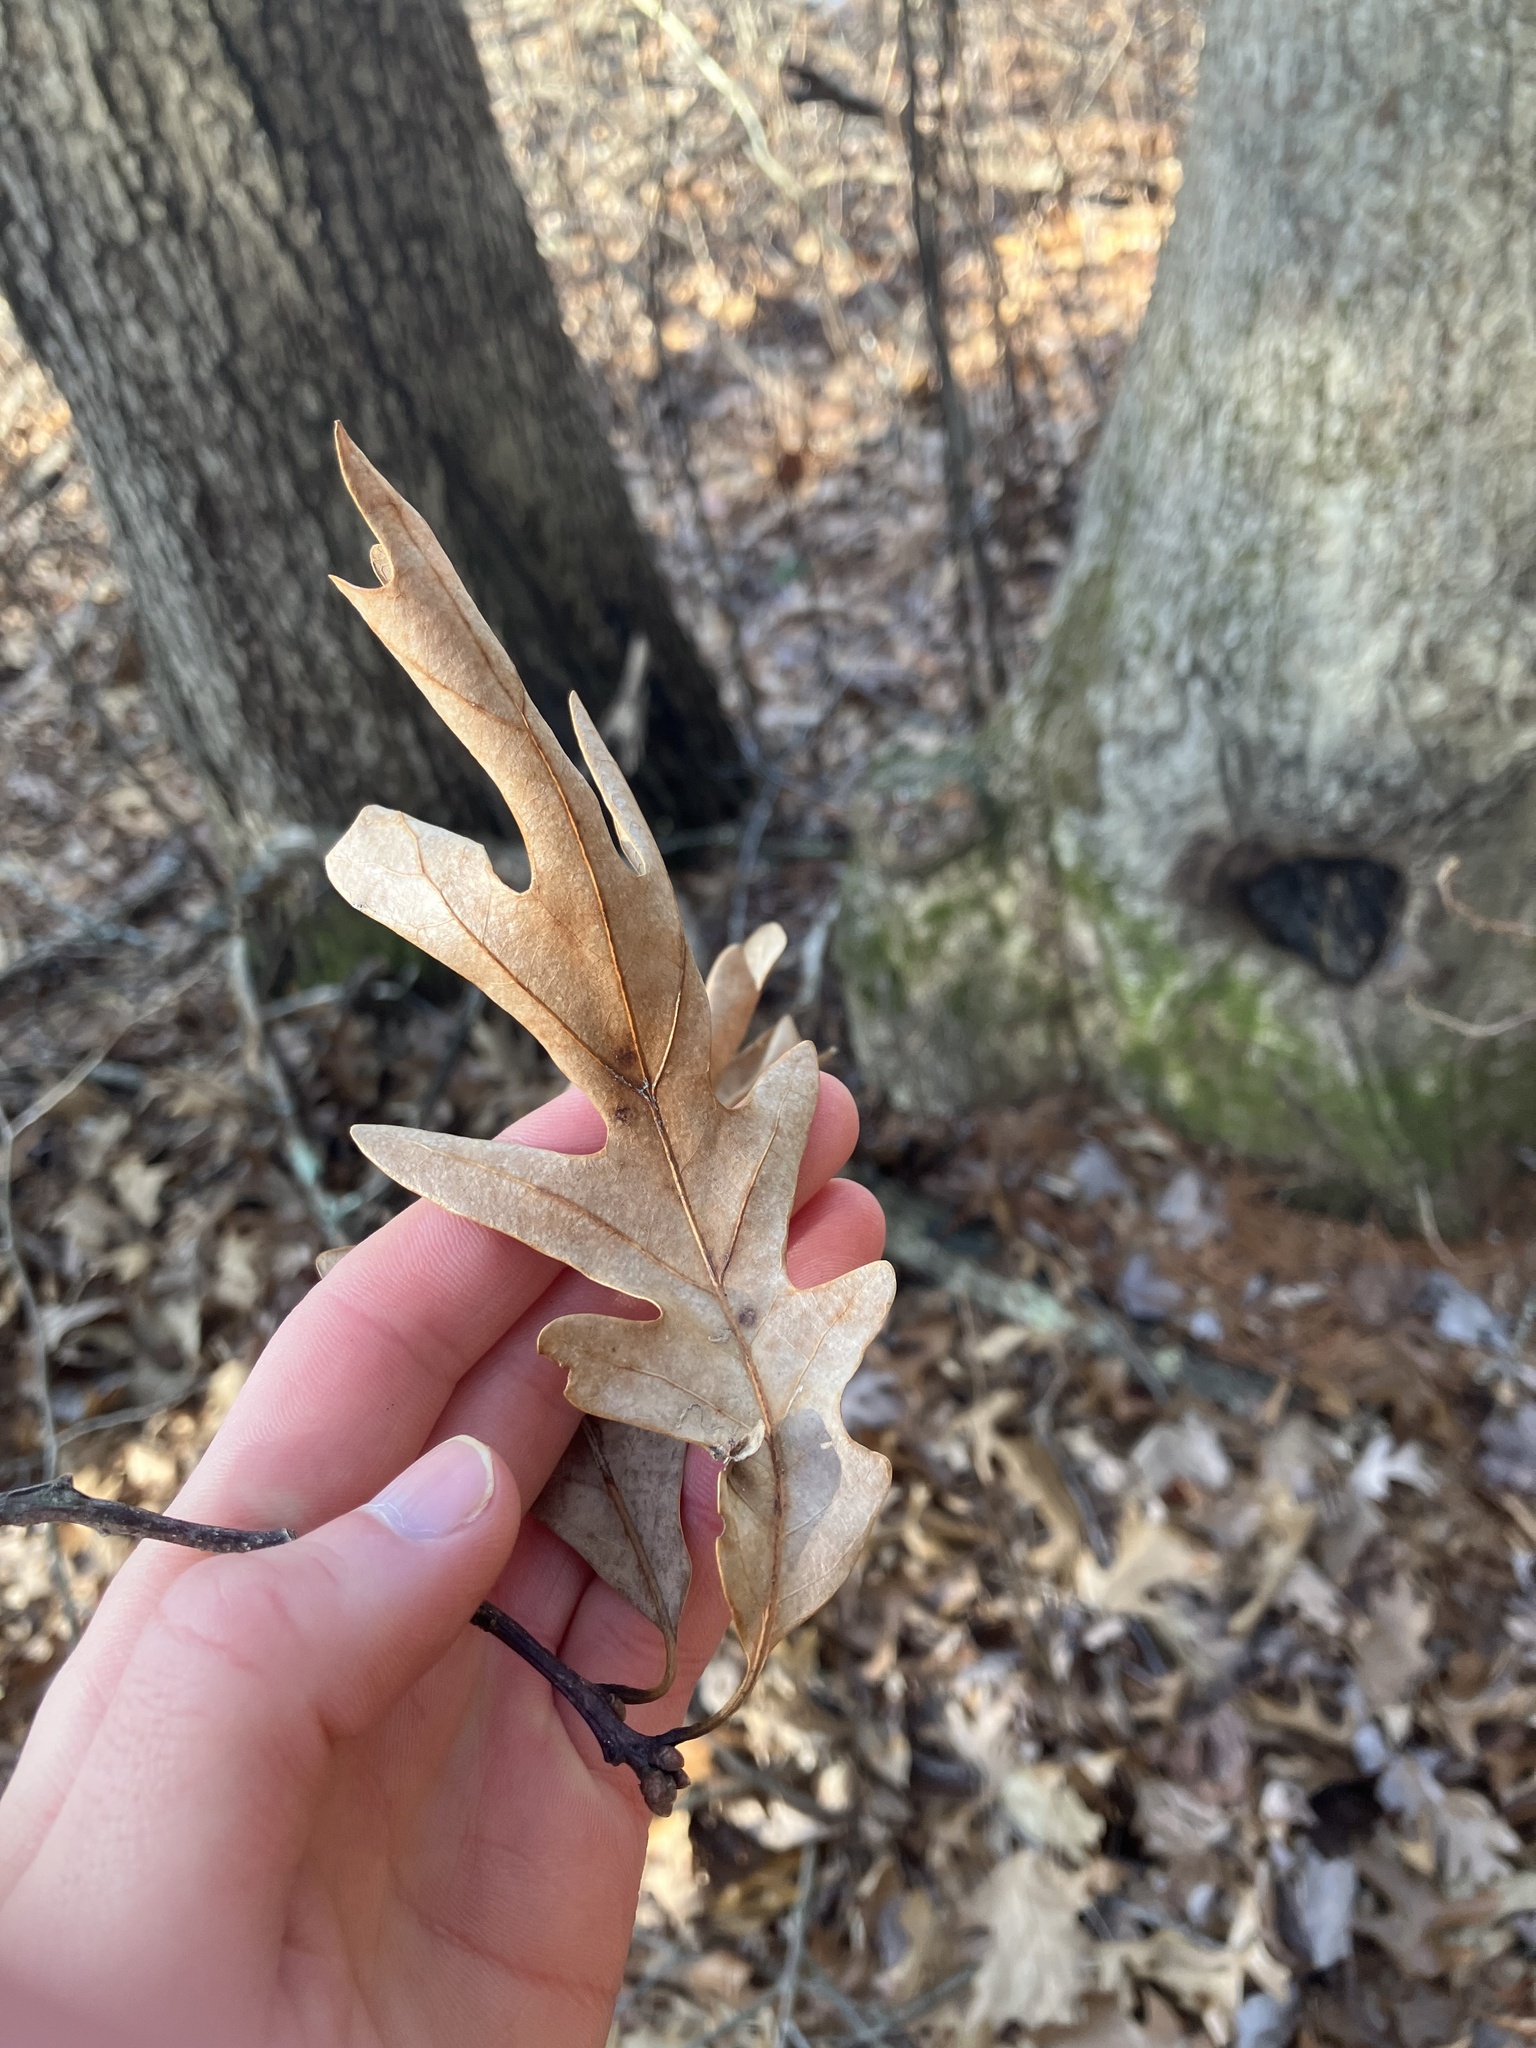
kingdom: Plantae
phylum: Tracheophyta
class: Magnoliopsida
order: Fagales
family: Fagaceae
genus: Quercus
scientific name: Quercus alba
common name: White oak
